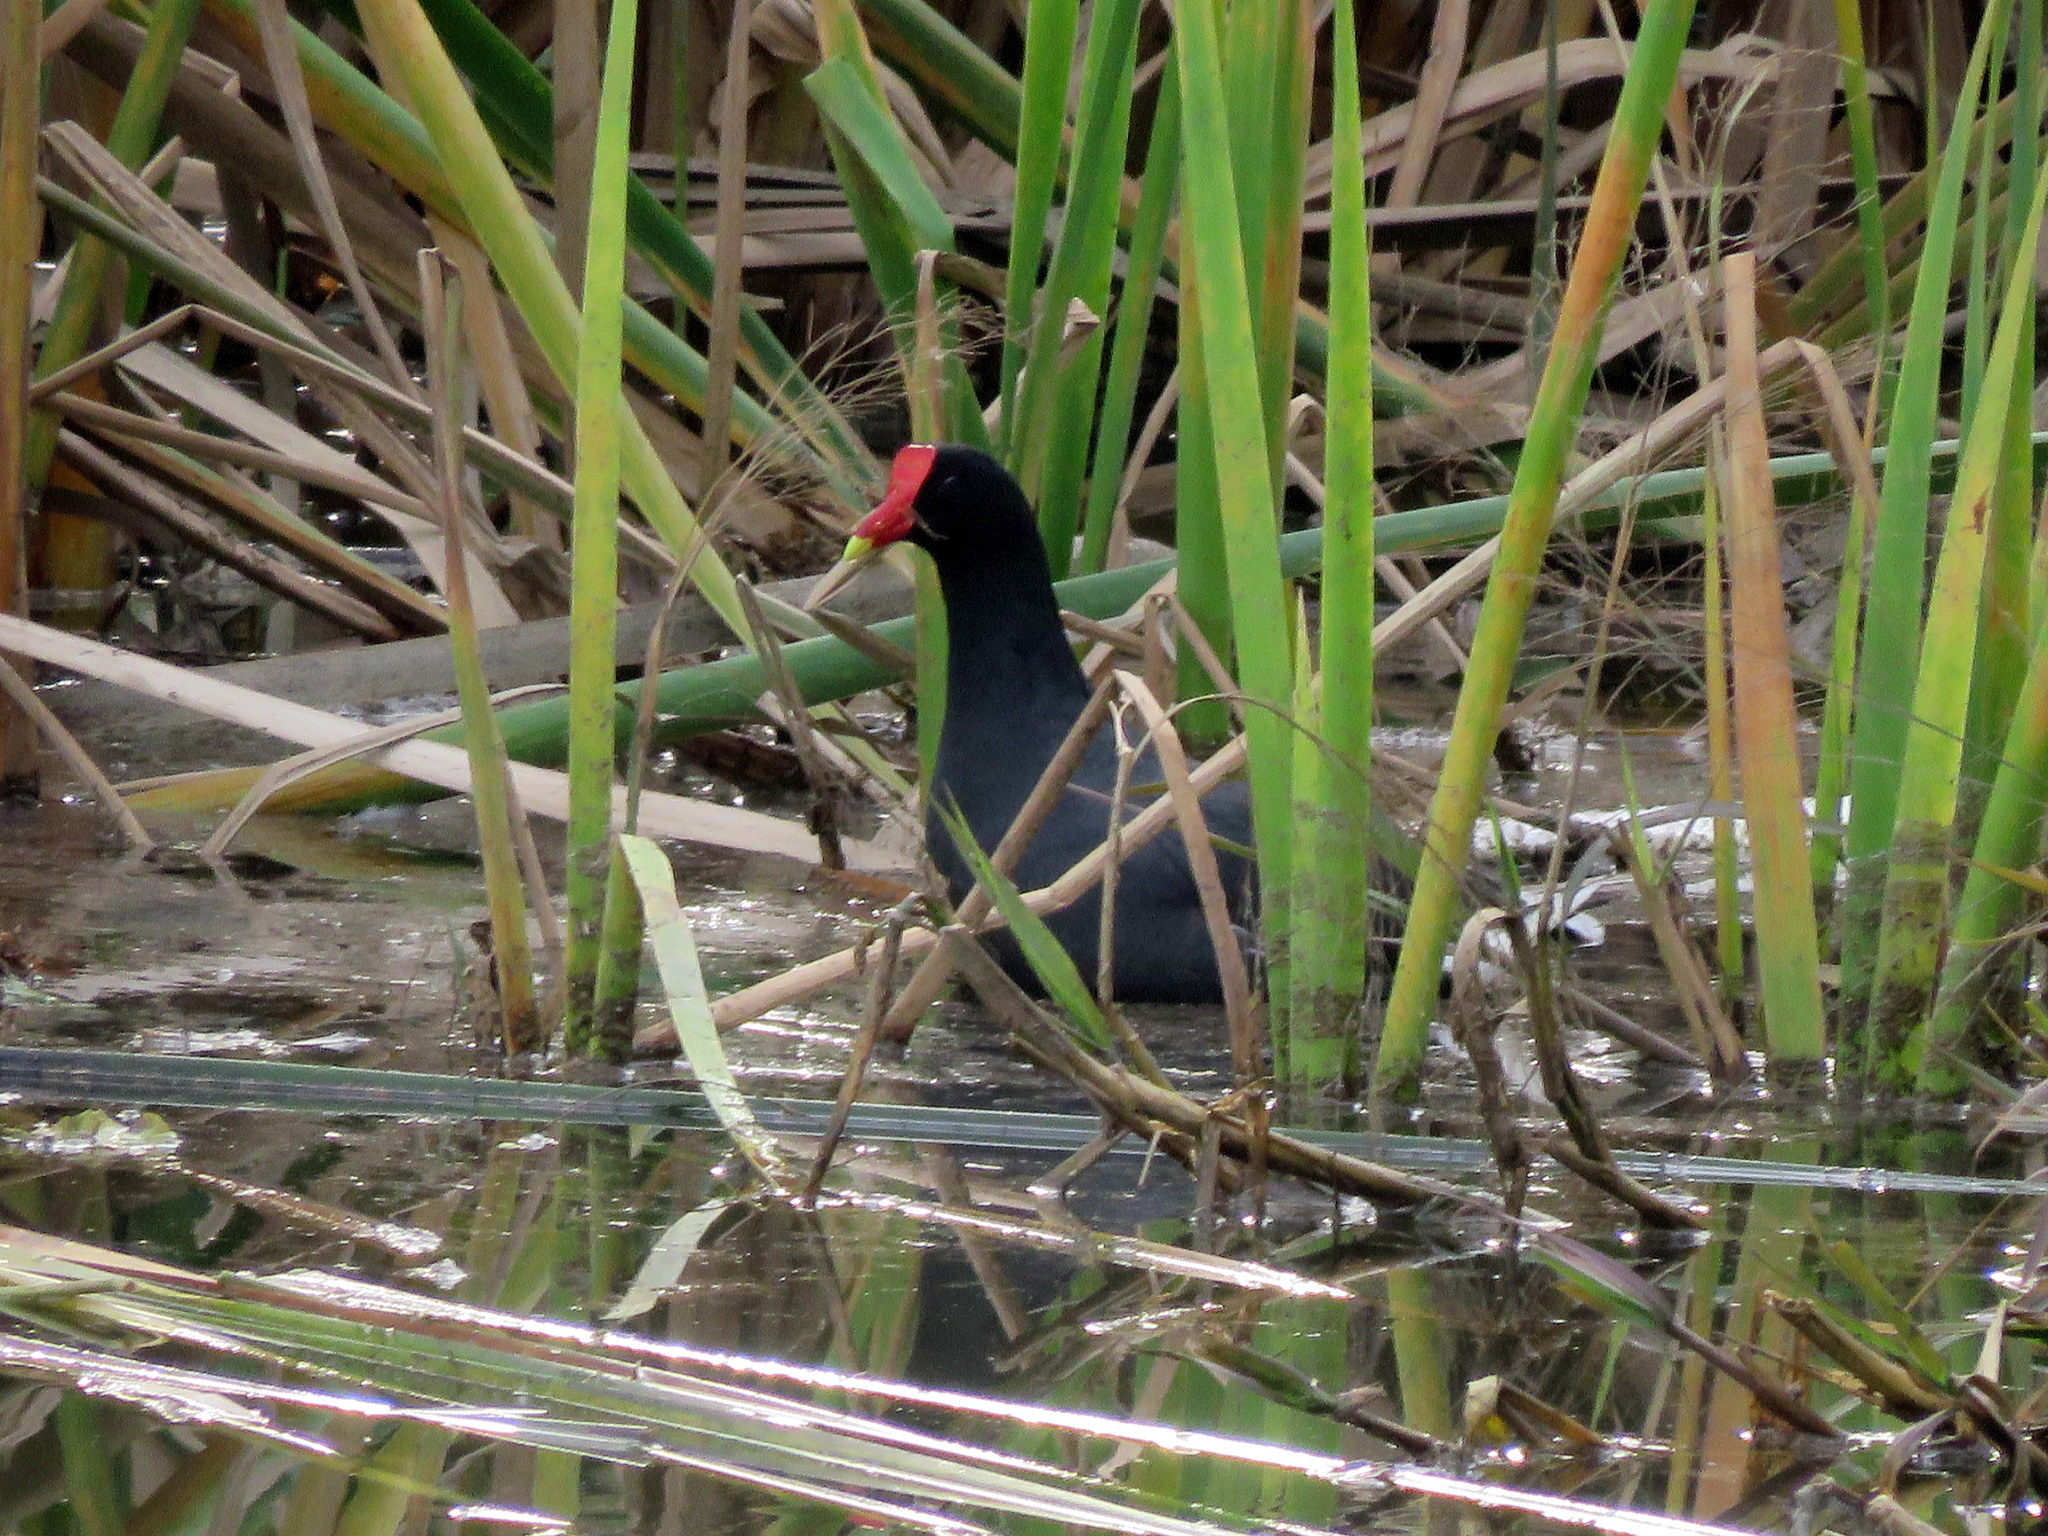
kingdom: Animalia
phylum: Chordata
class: Aves
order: Gruiformes
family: Rallidae
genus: Gallinula
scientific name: Gallinula chloropus
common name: Common moorhen
